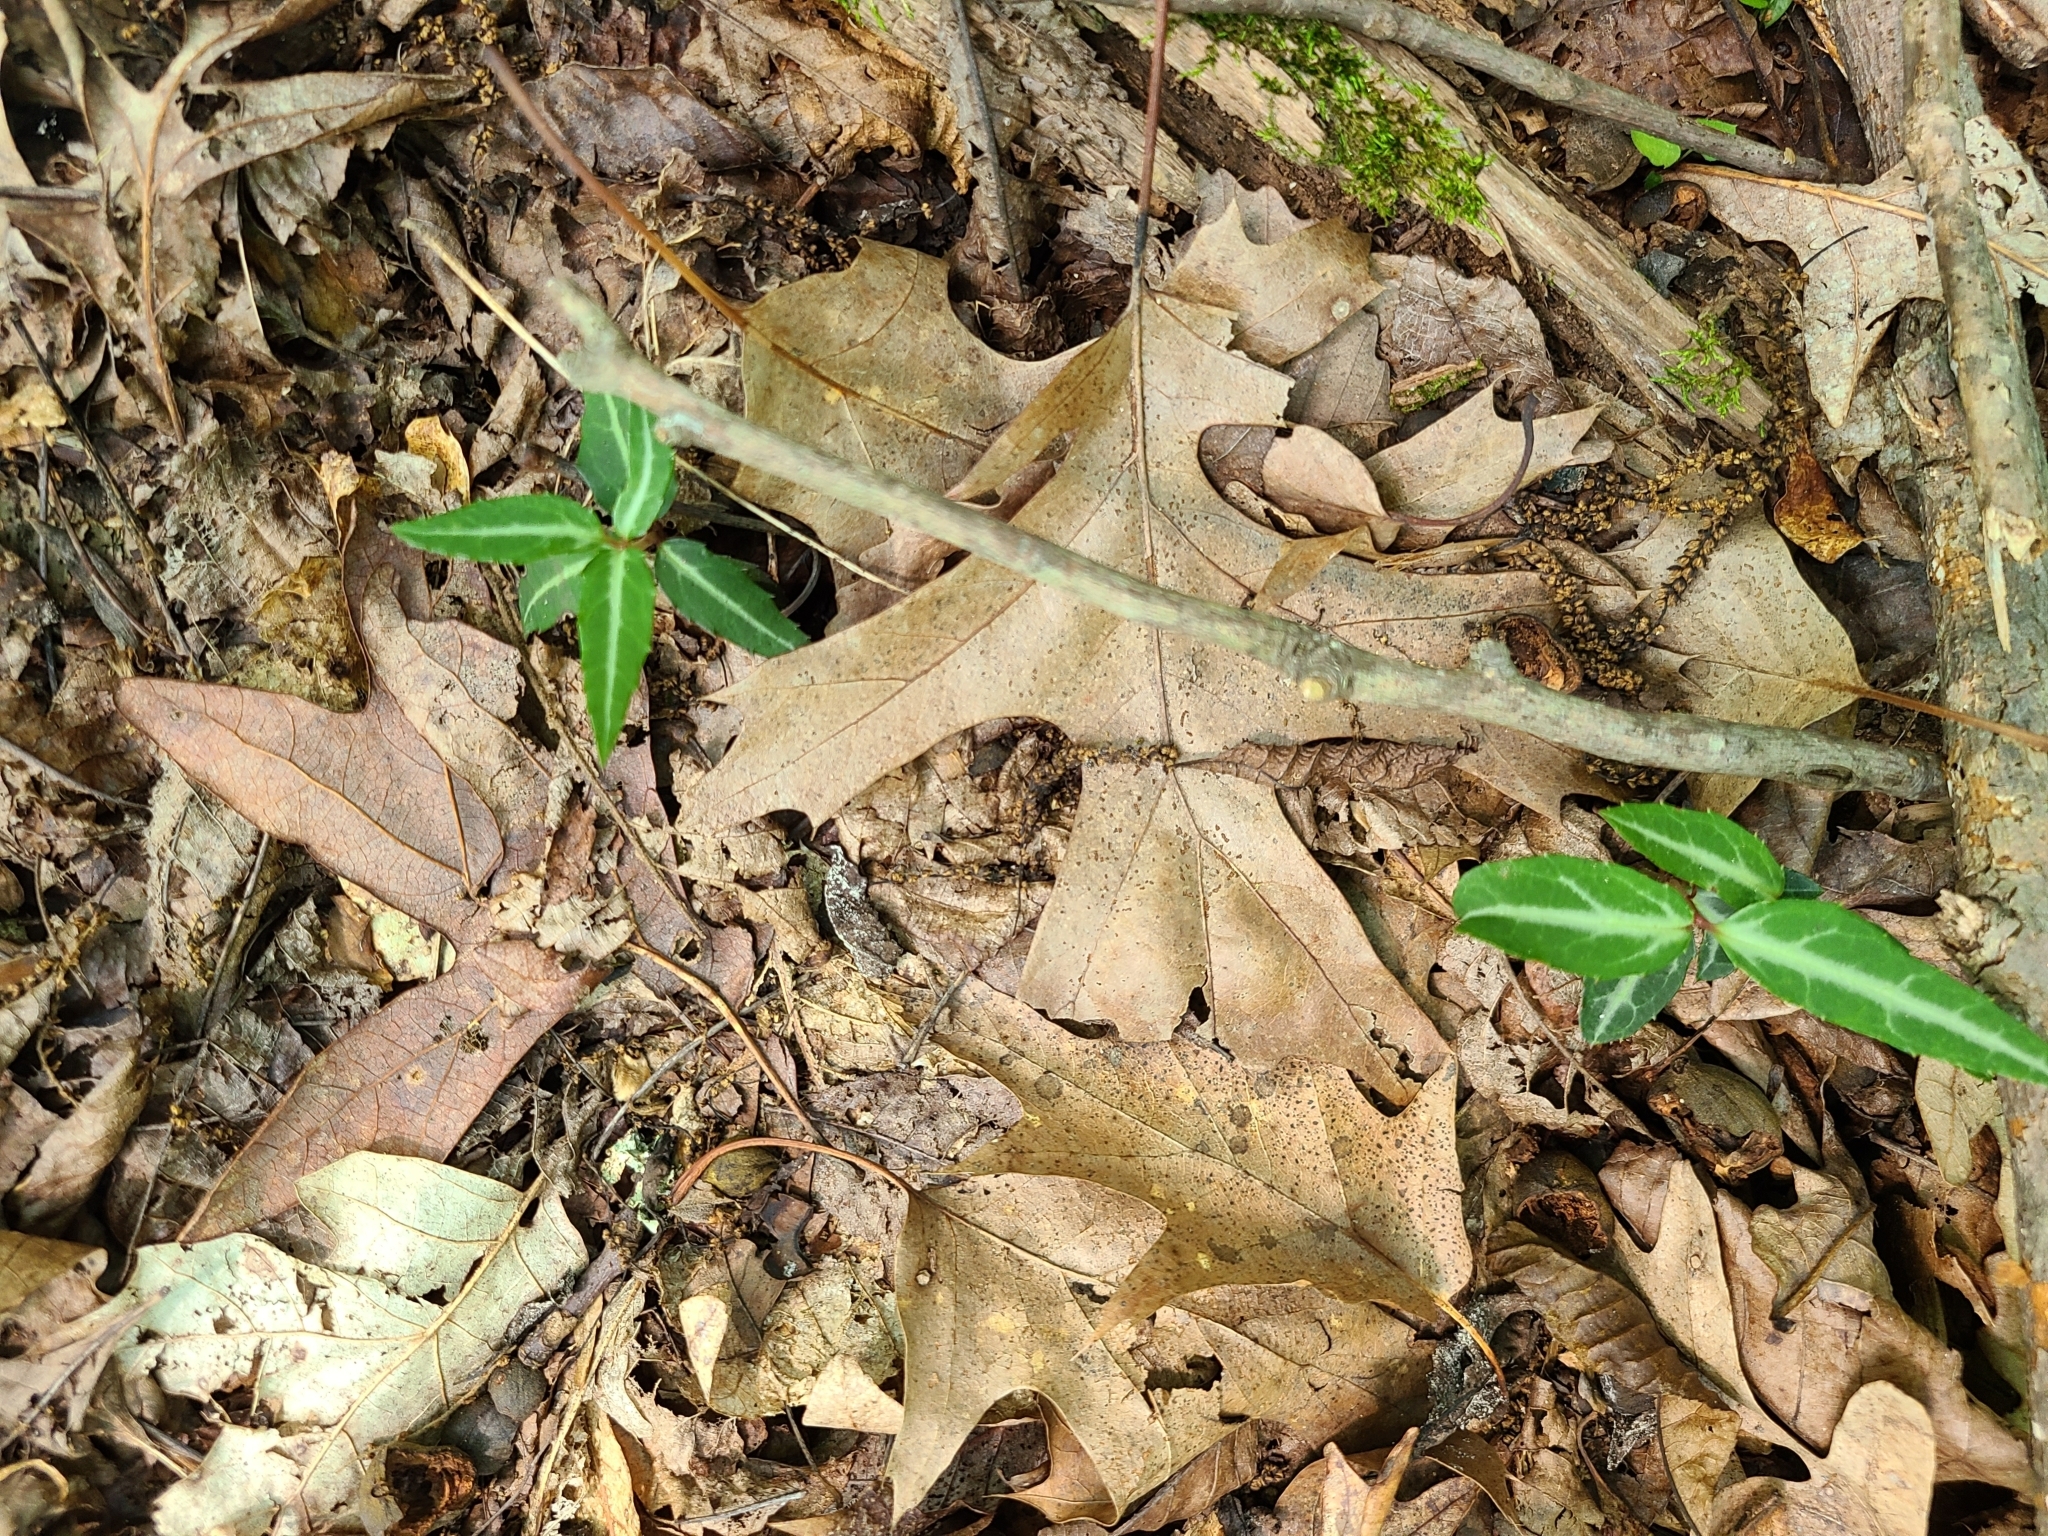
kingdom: Plantae
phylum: Tracheophyta
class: Magnoliopsida
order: Ericales
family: Ericaceae
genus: Chimaphila
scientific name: Chimaphila maculata
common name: Spotted pipsissewa
